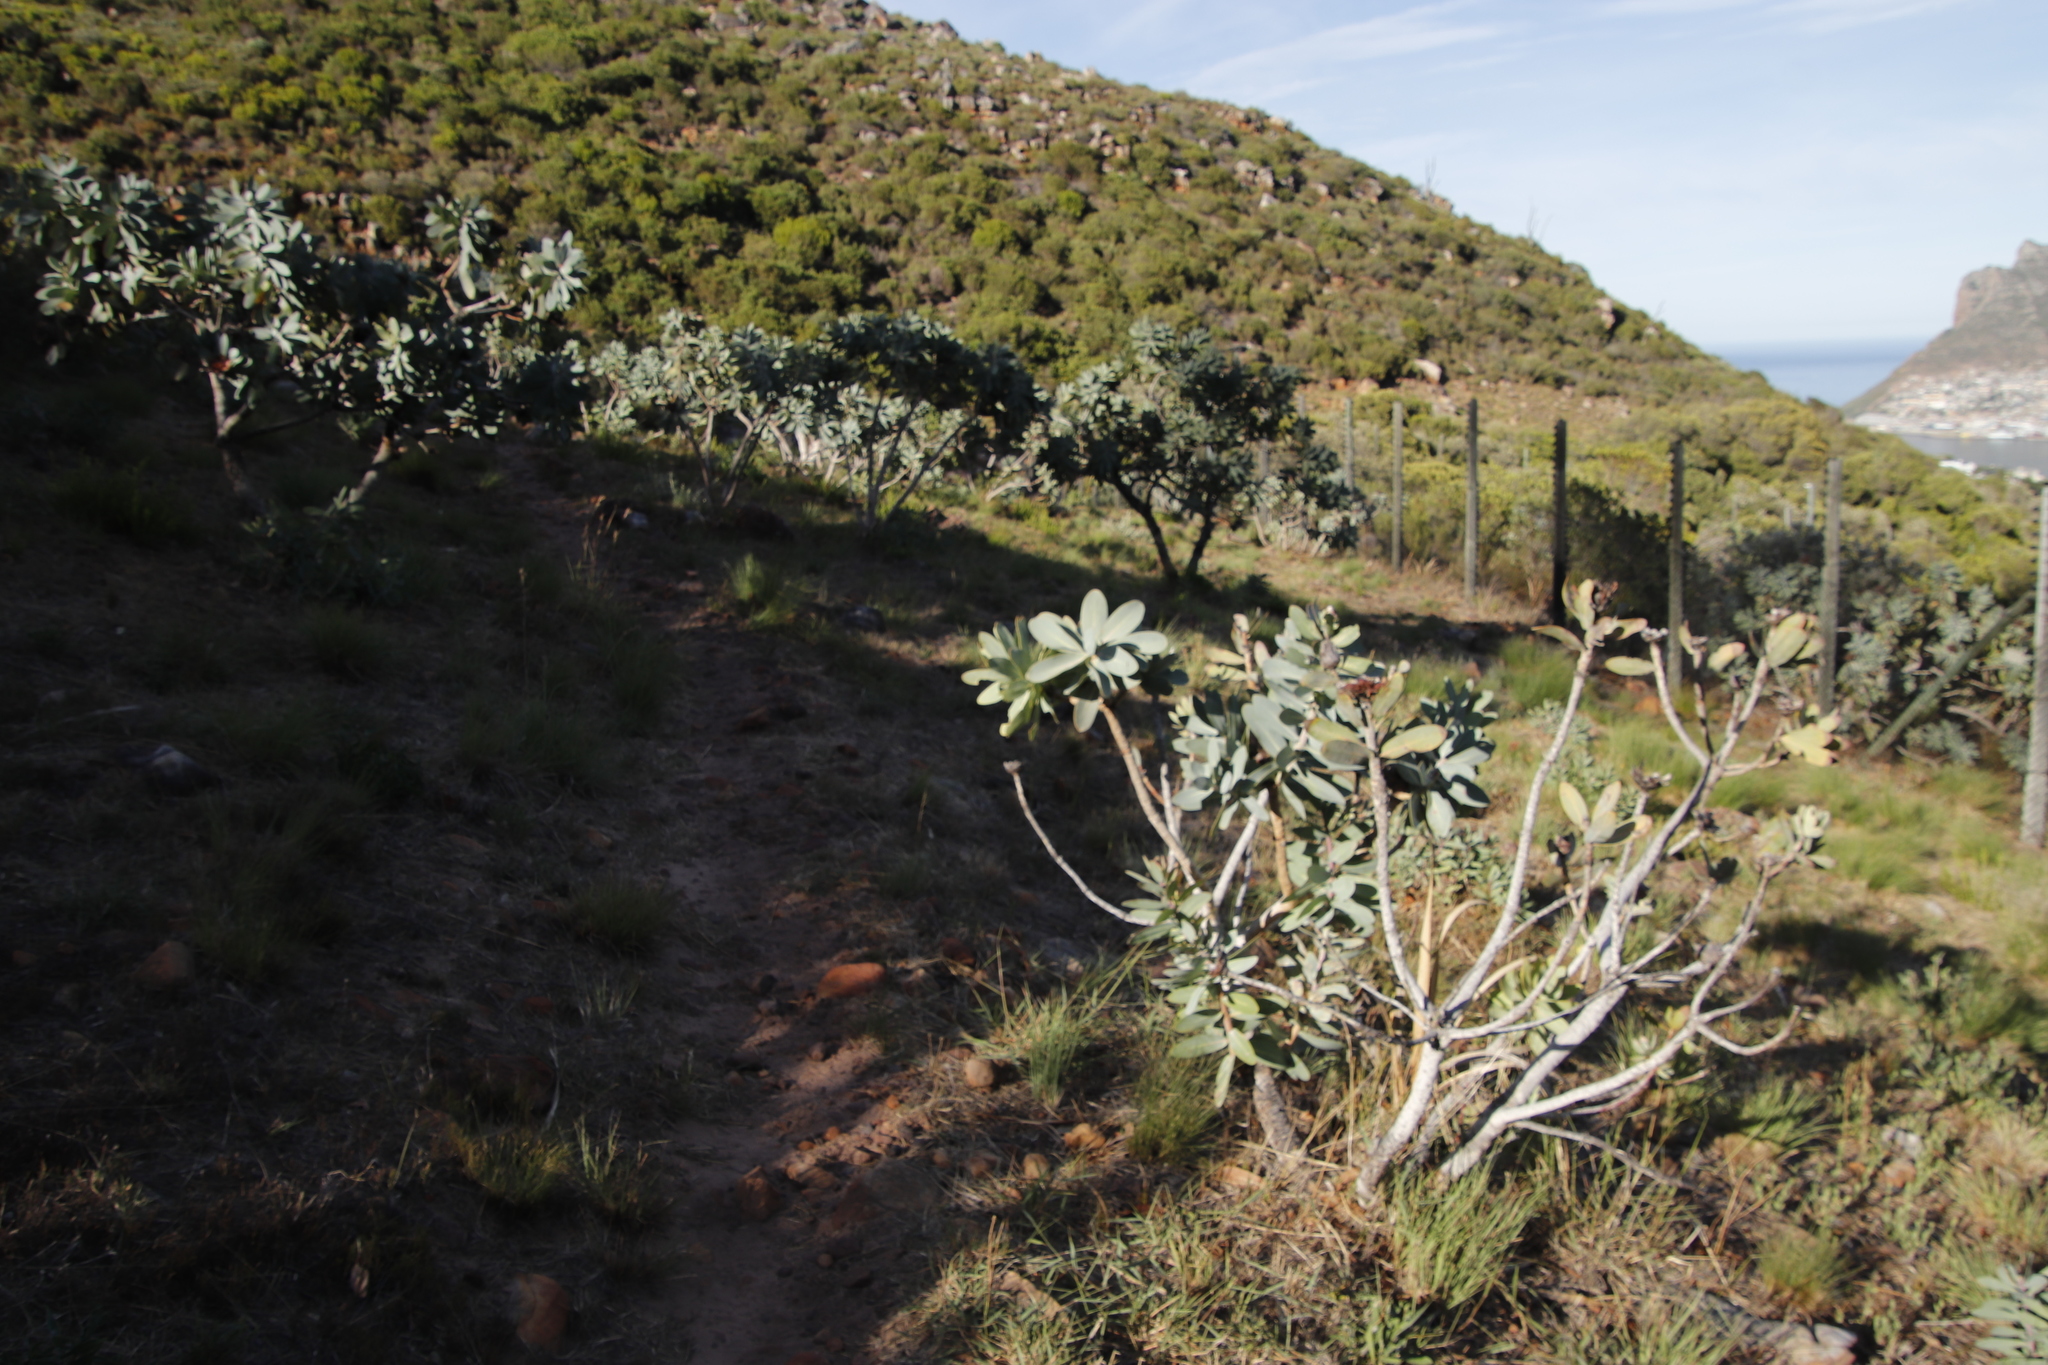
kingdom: Plantae
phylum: Tracheophyta
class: Magnoliopsida
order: Proteales
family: Proteaceae
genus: Protea
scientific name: Protea nitida
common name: Tree protea
